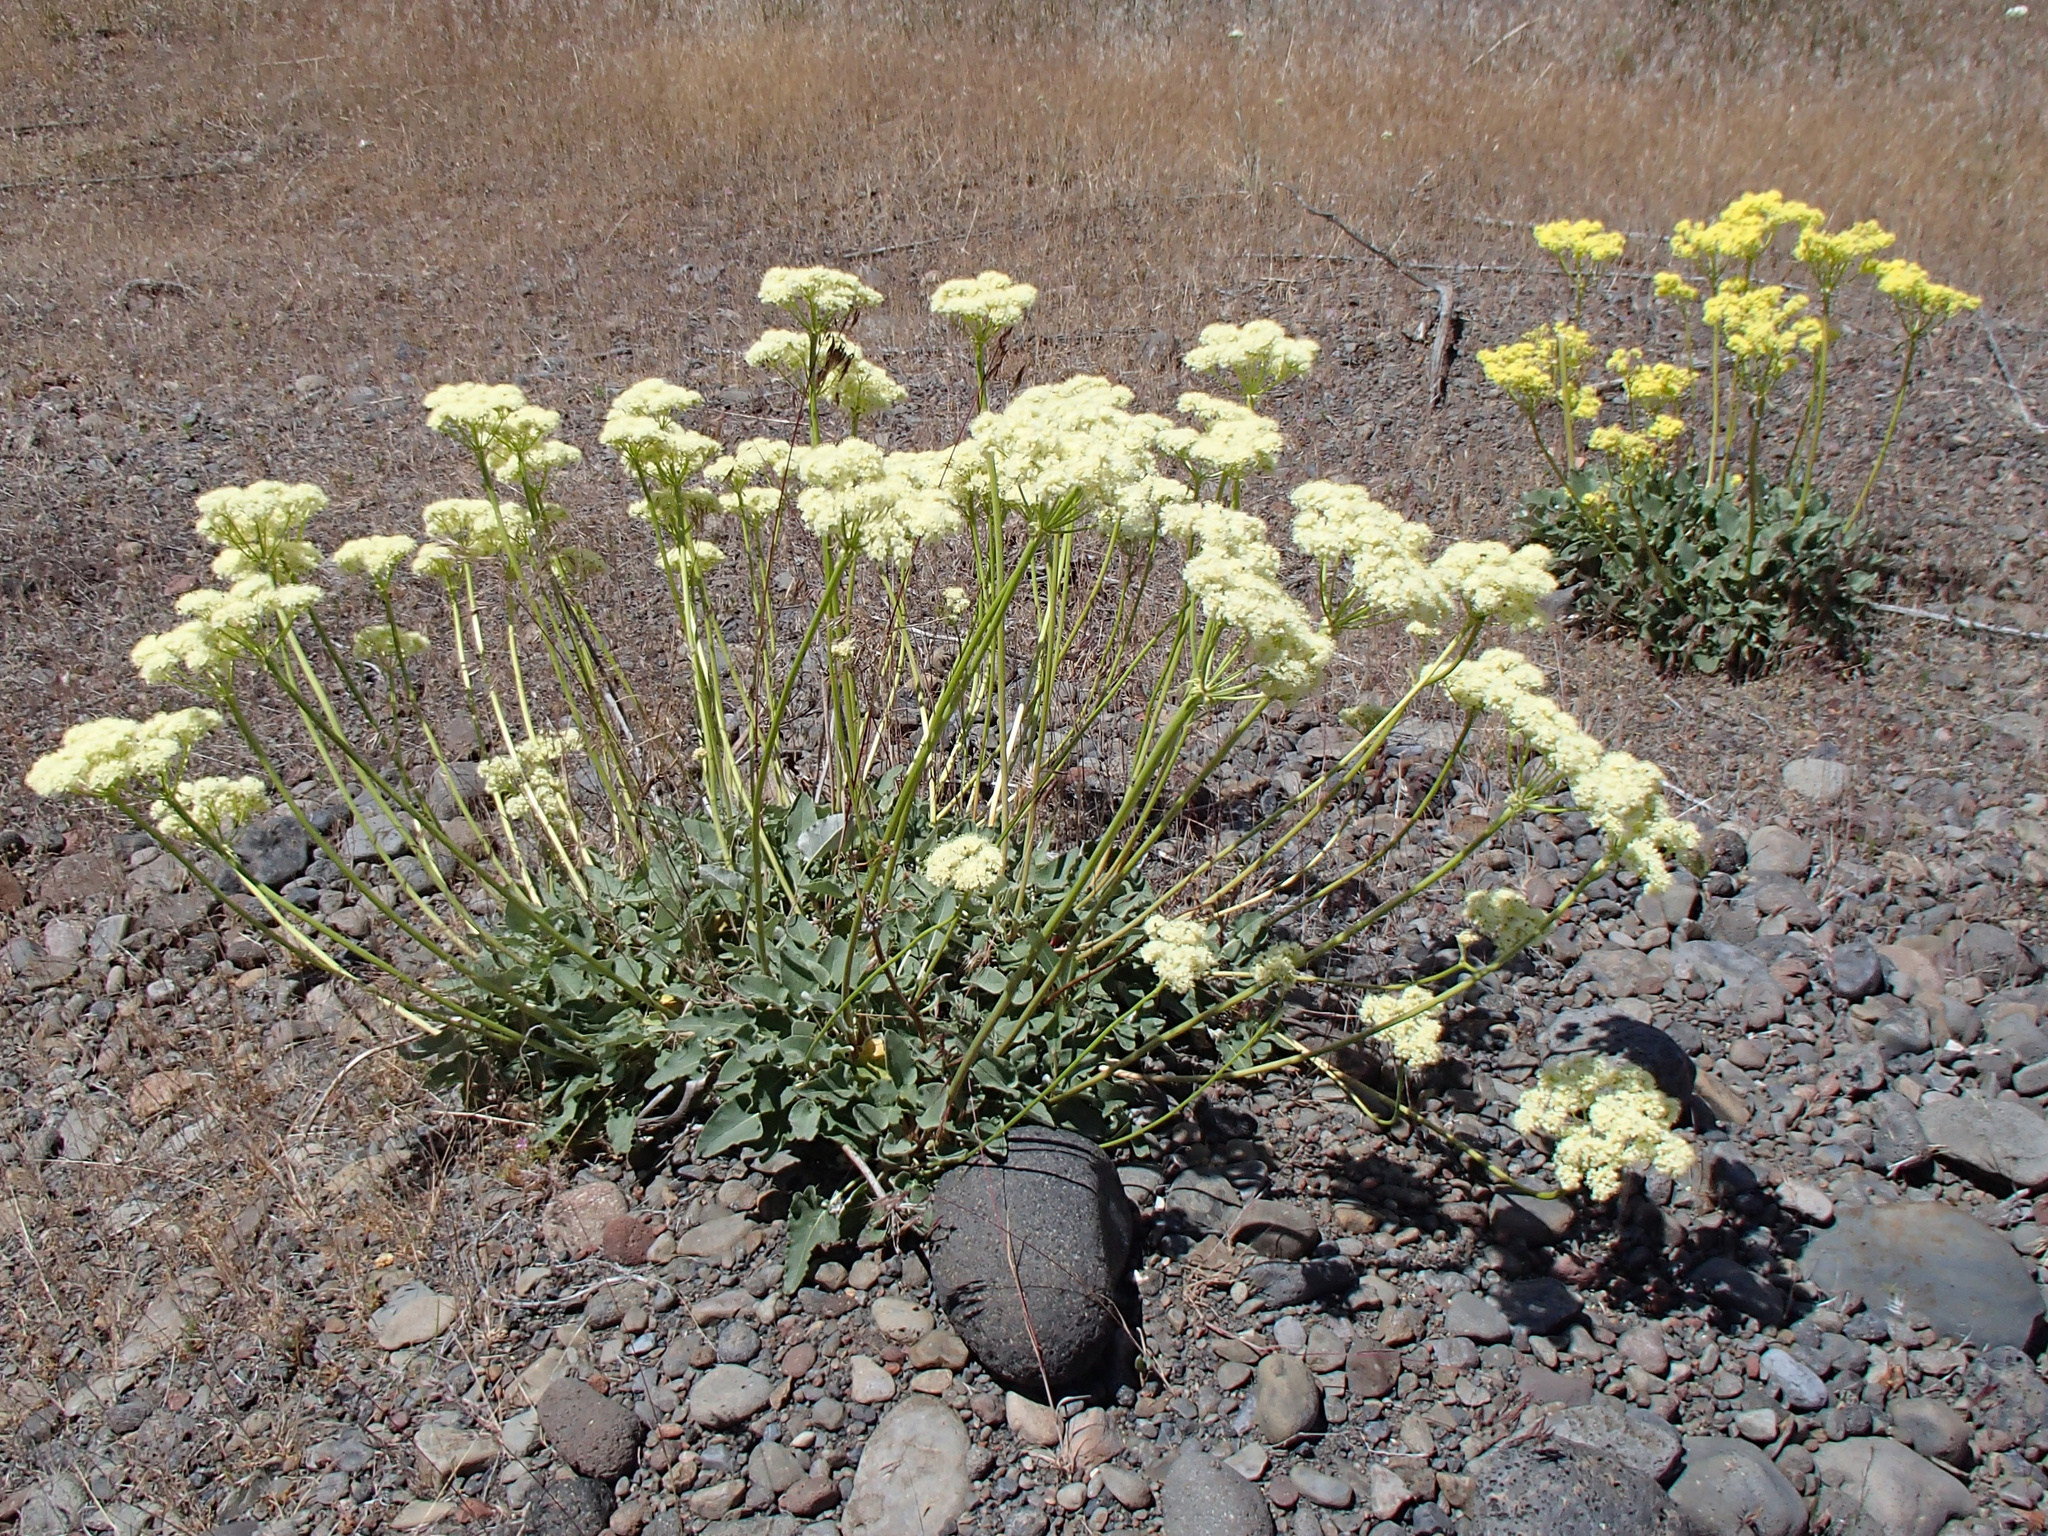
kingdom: Plantae
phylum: Tracheophyta
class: Magnoliopsida
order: Caryophyllales
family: Polygonaceae
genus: Eriogonum
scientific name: Eriogonum compositum
